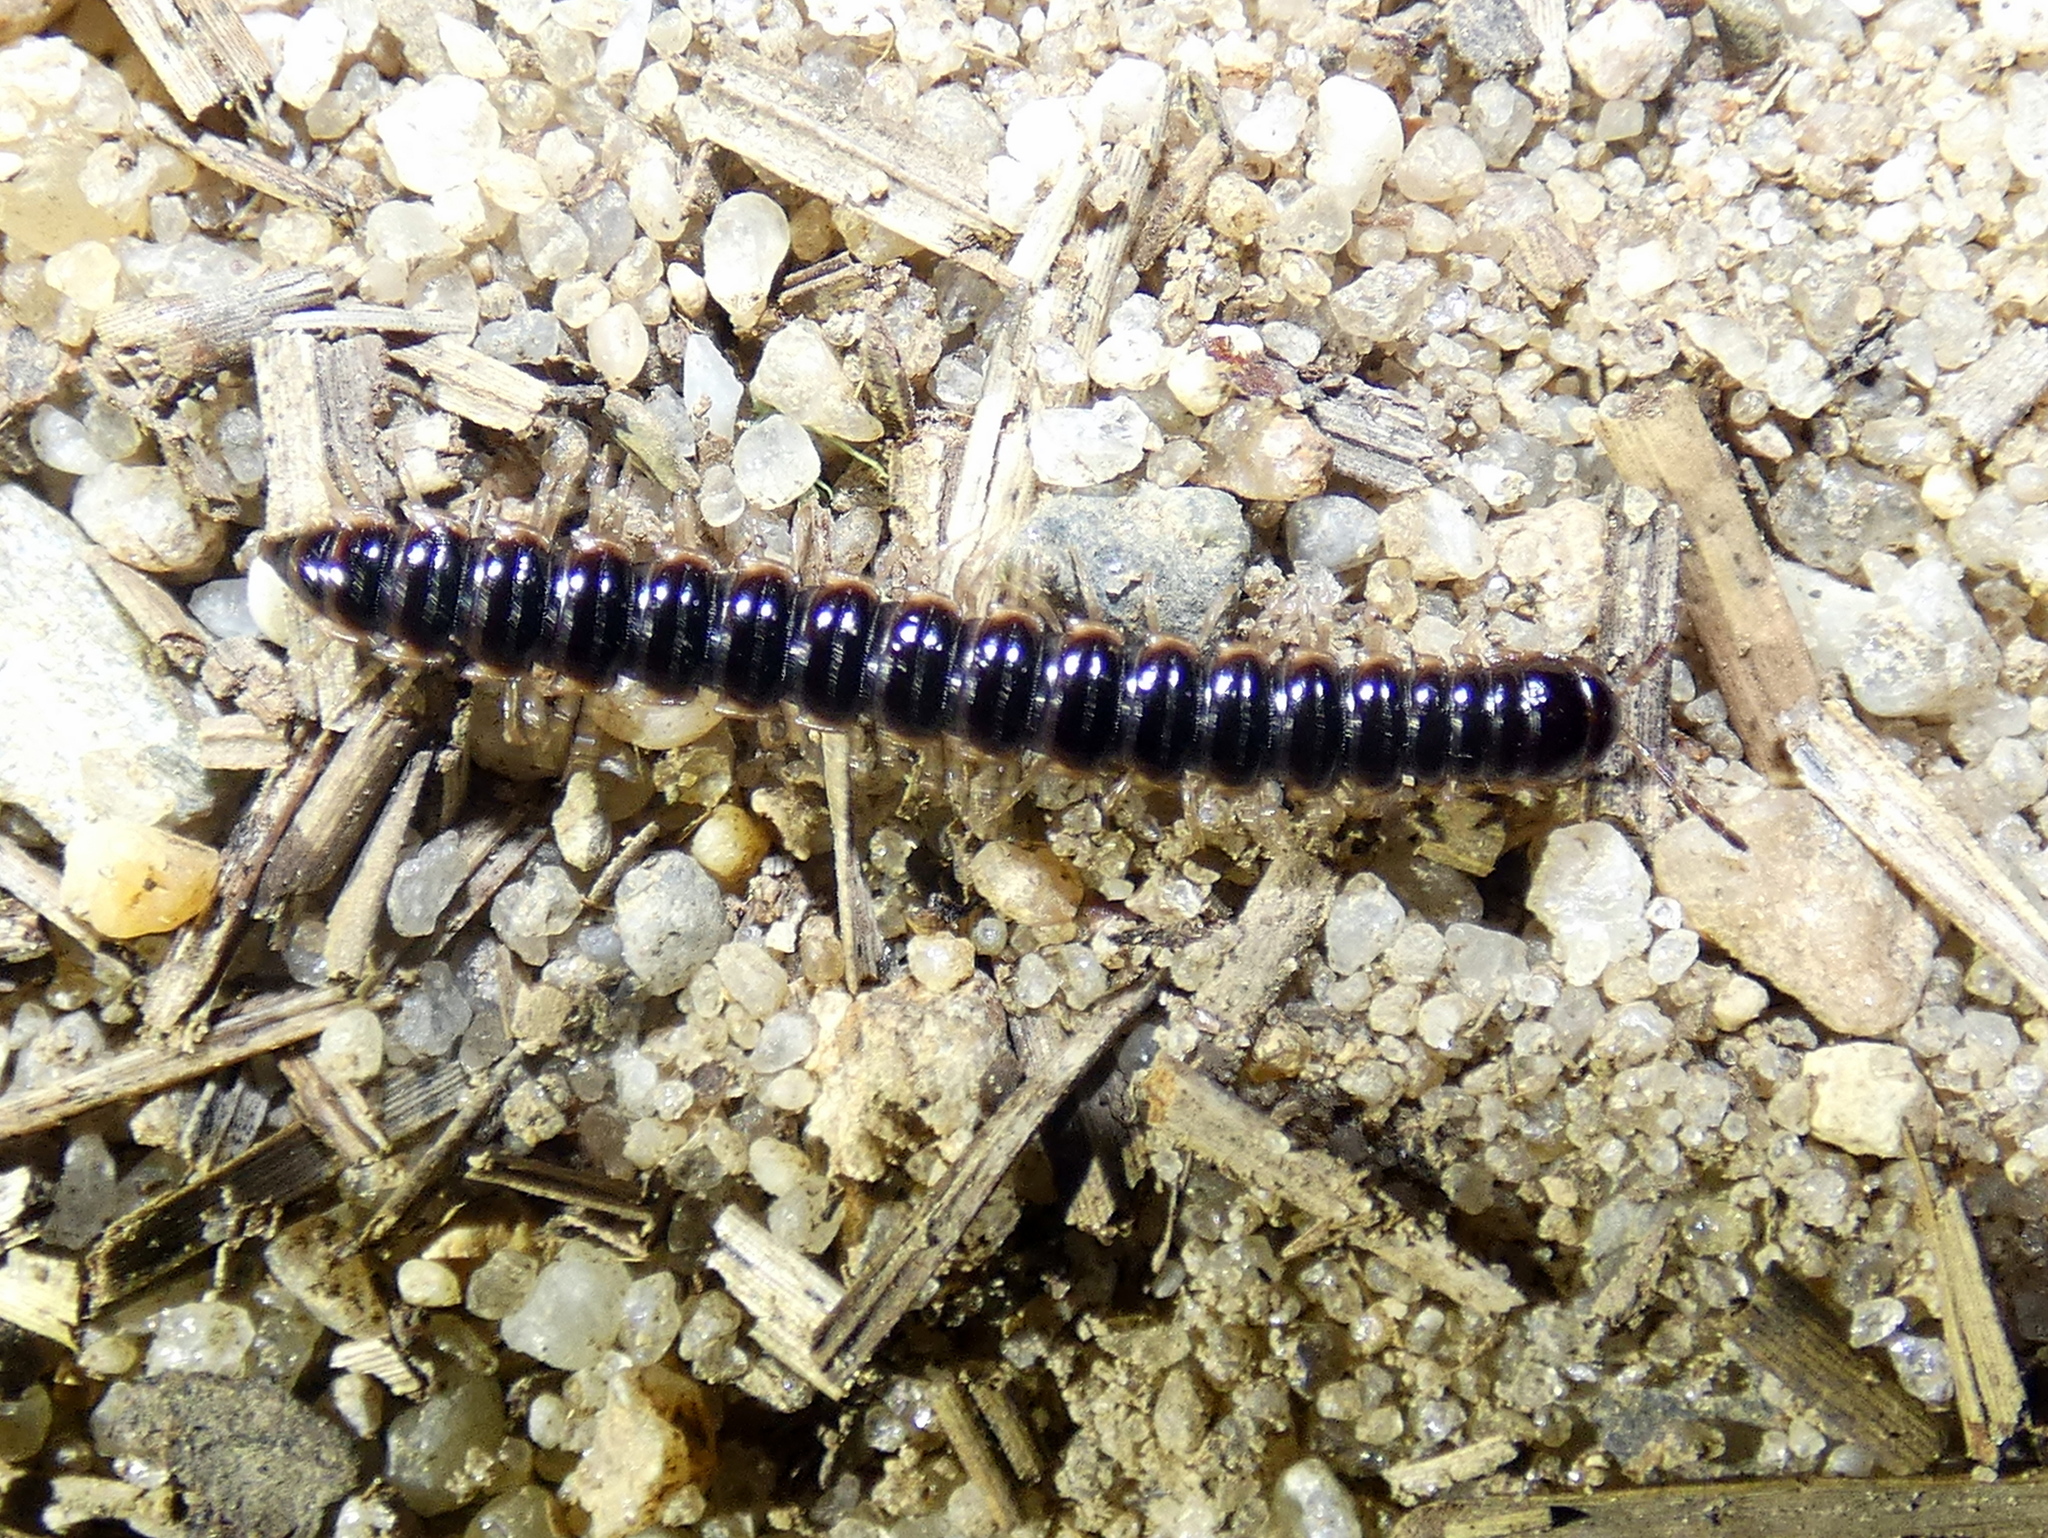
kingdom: Animalia
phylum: Arthropoda
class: Diplopoda
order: Polydesmida
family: Paradoxosomatidae
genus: Oxidus
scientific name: Oxidus gracilis
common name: Greenhouse millipede
